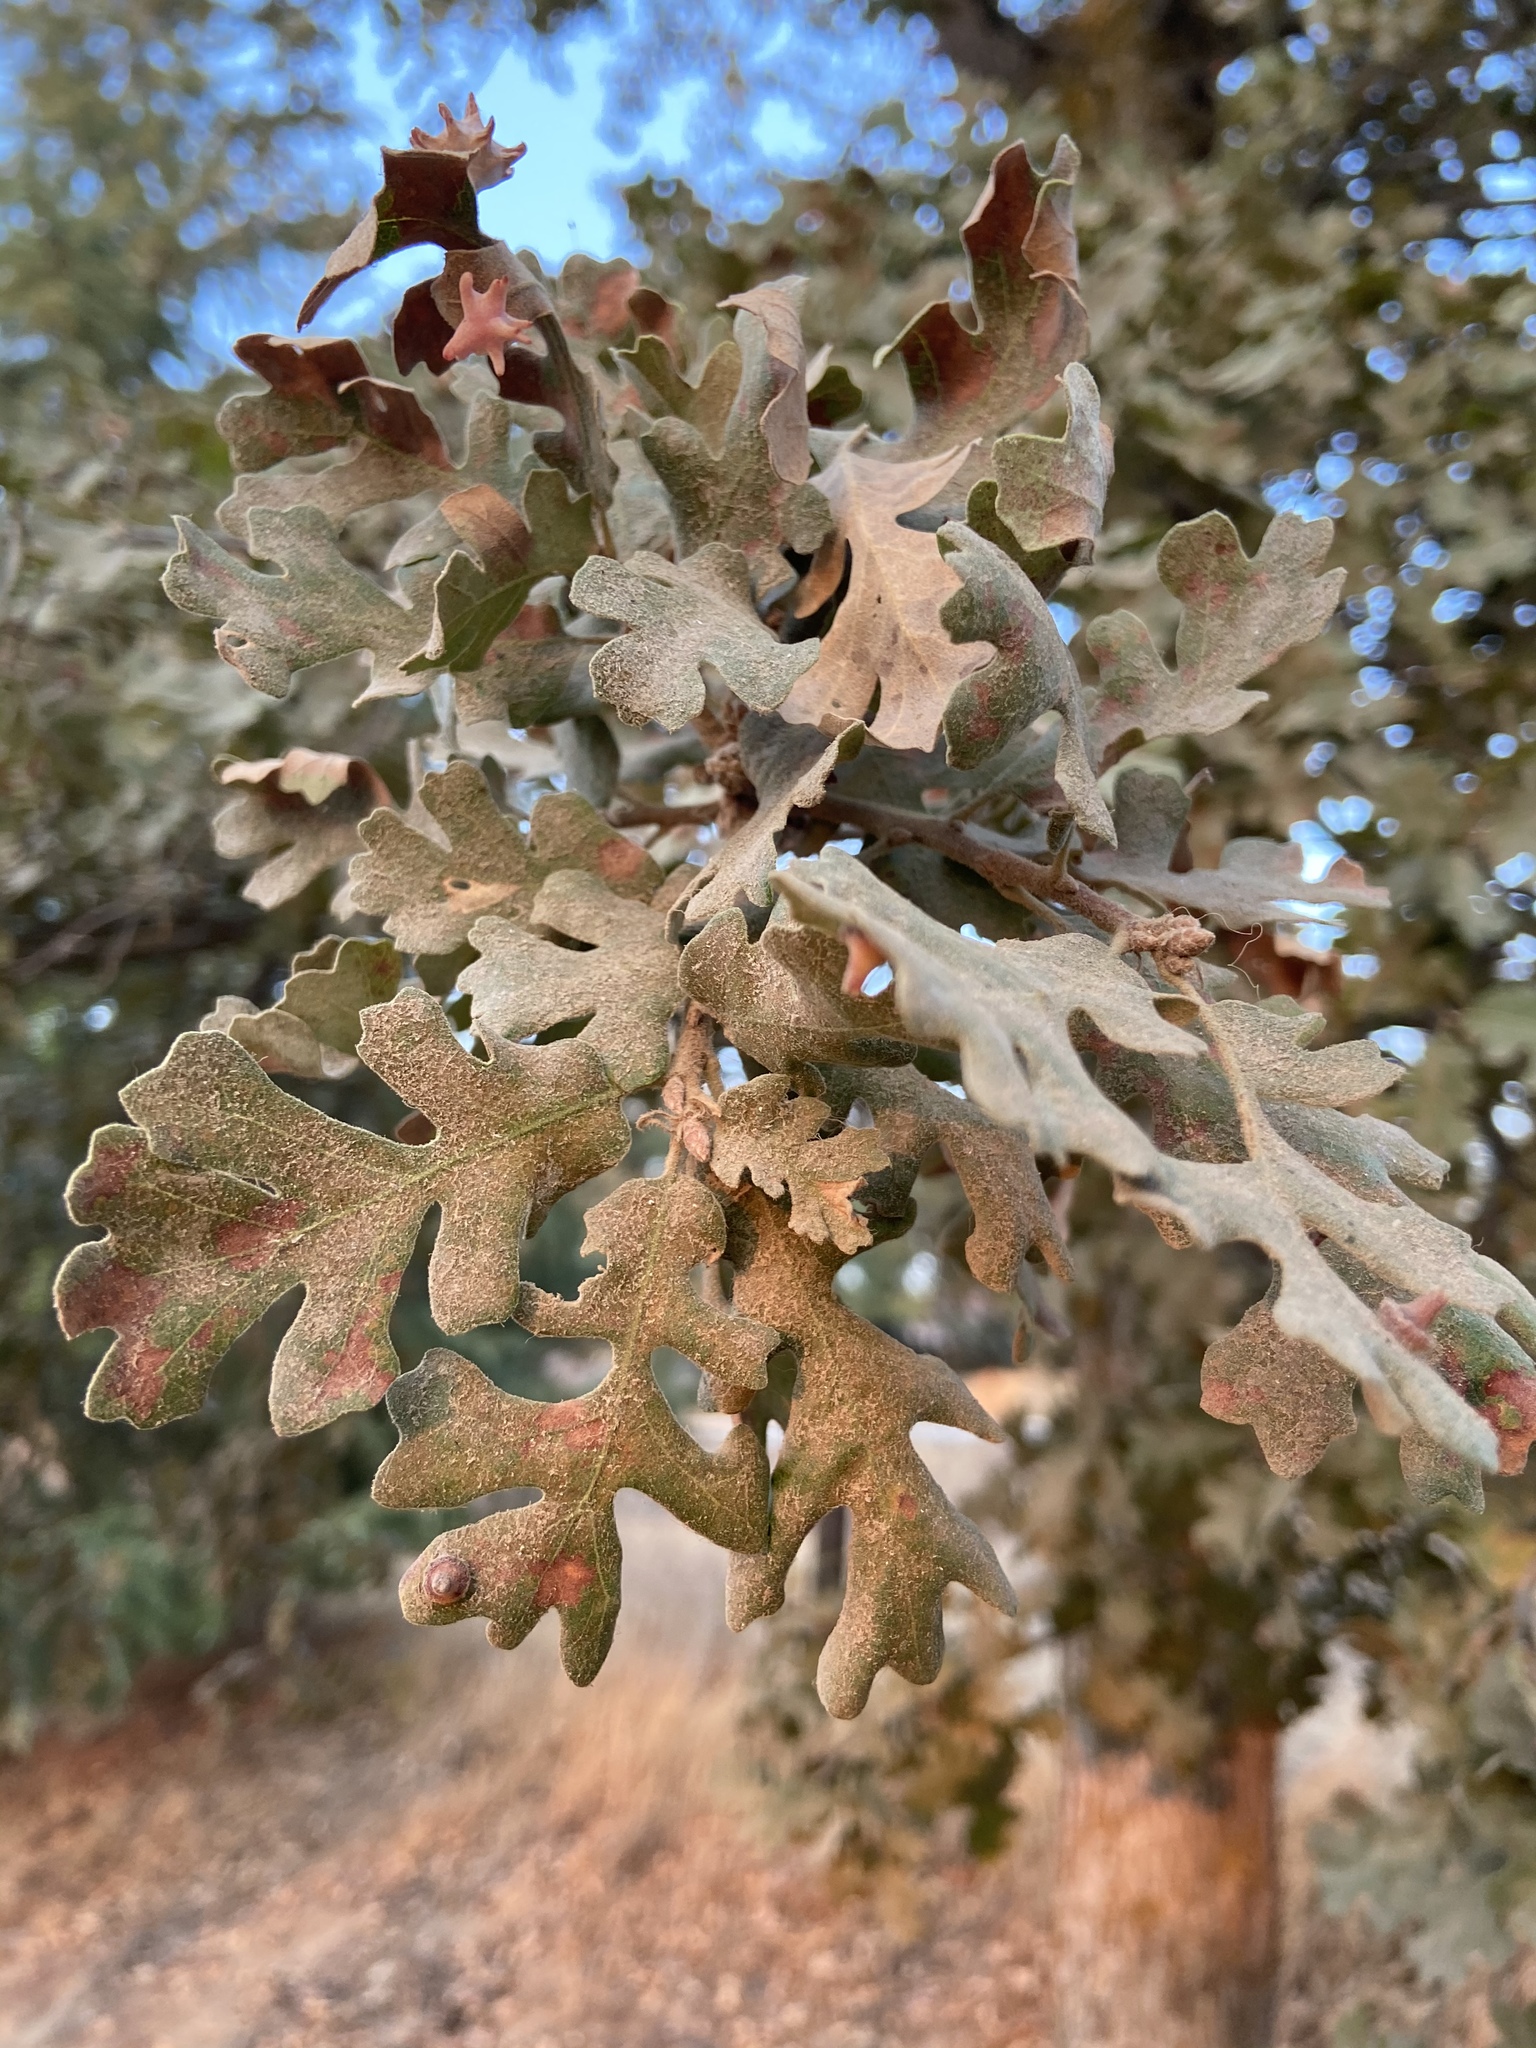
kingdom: Plantae
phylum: Tracheophyta
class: Magnoliopsida
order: Fagales
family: Fagaceae
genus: Quercus
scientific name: Quercus lobata
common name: Valley oak
